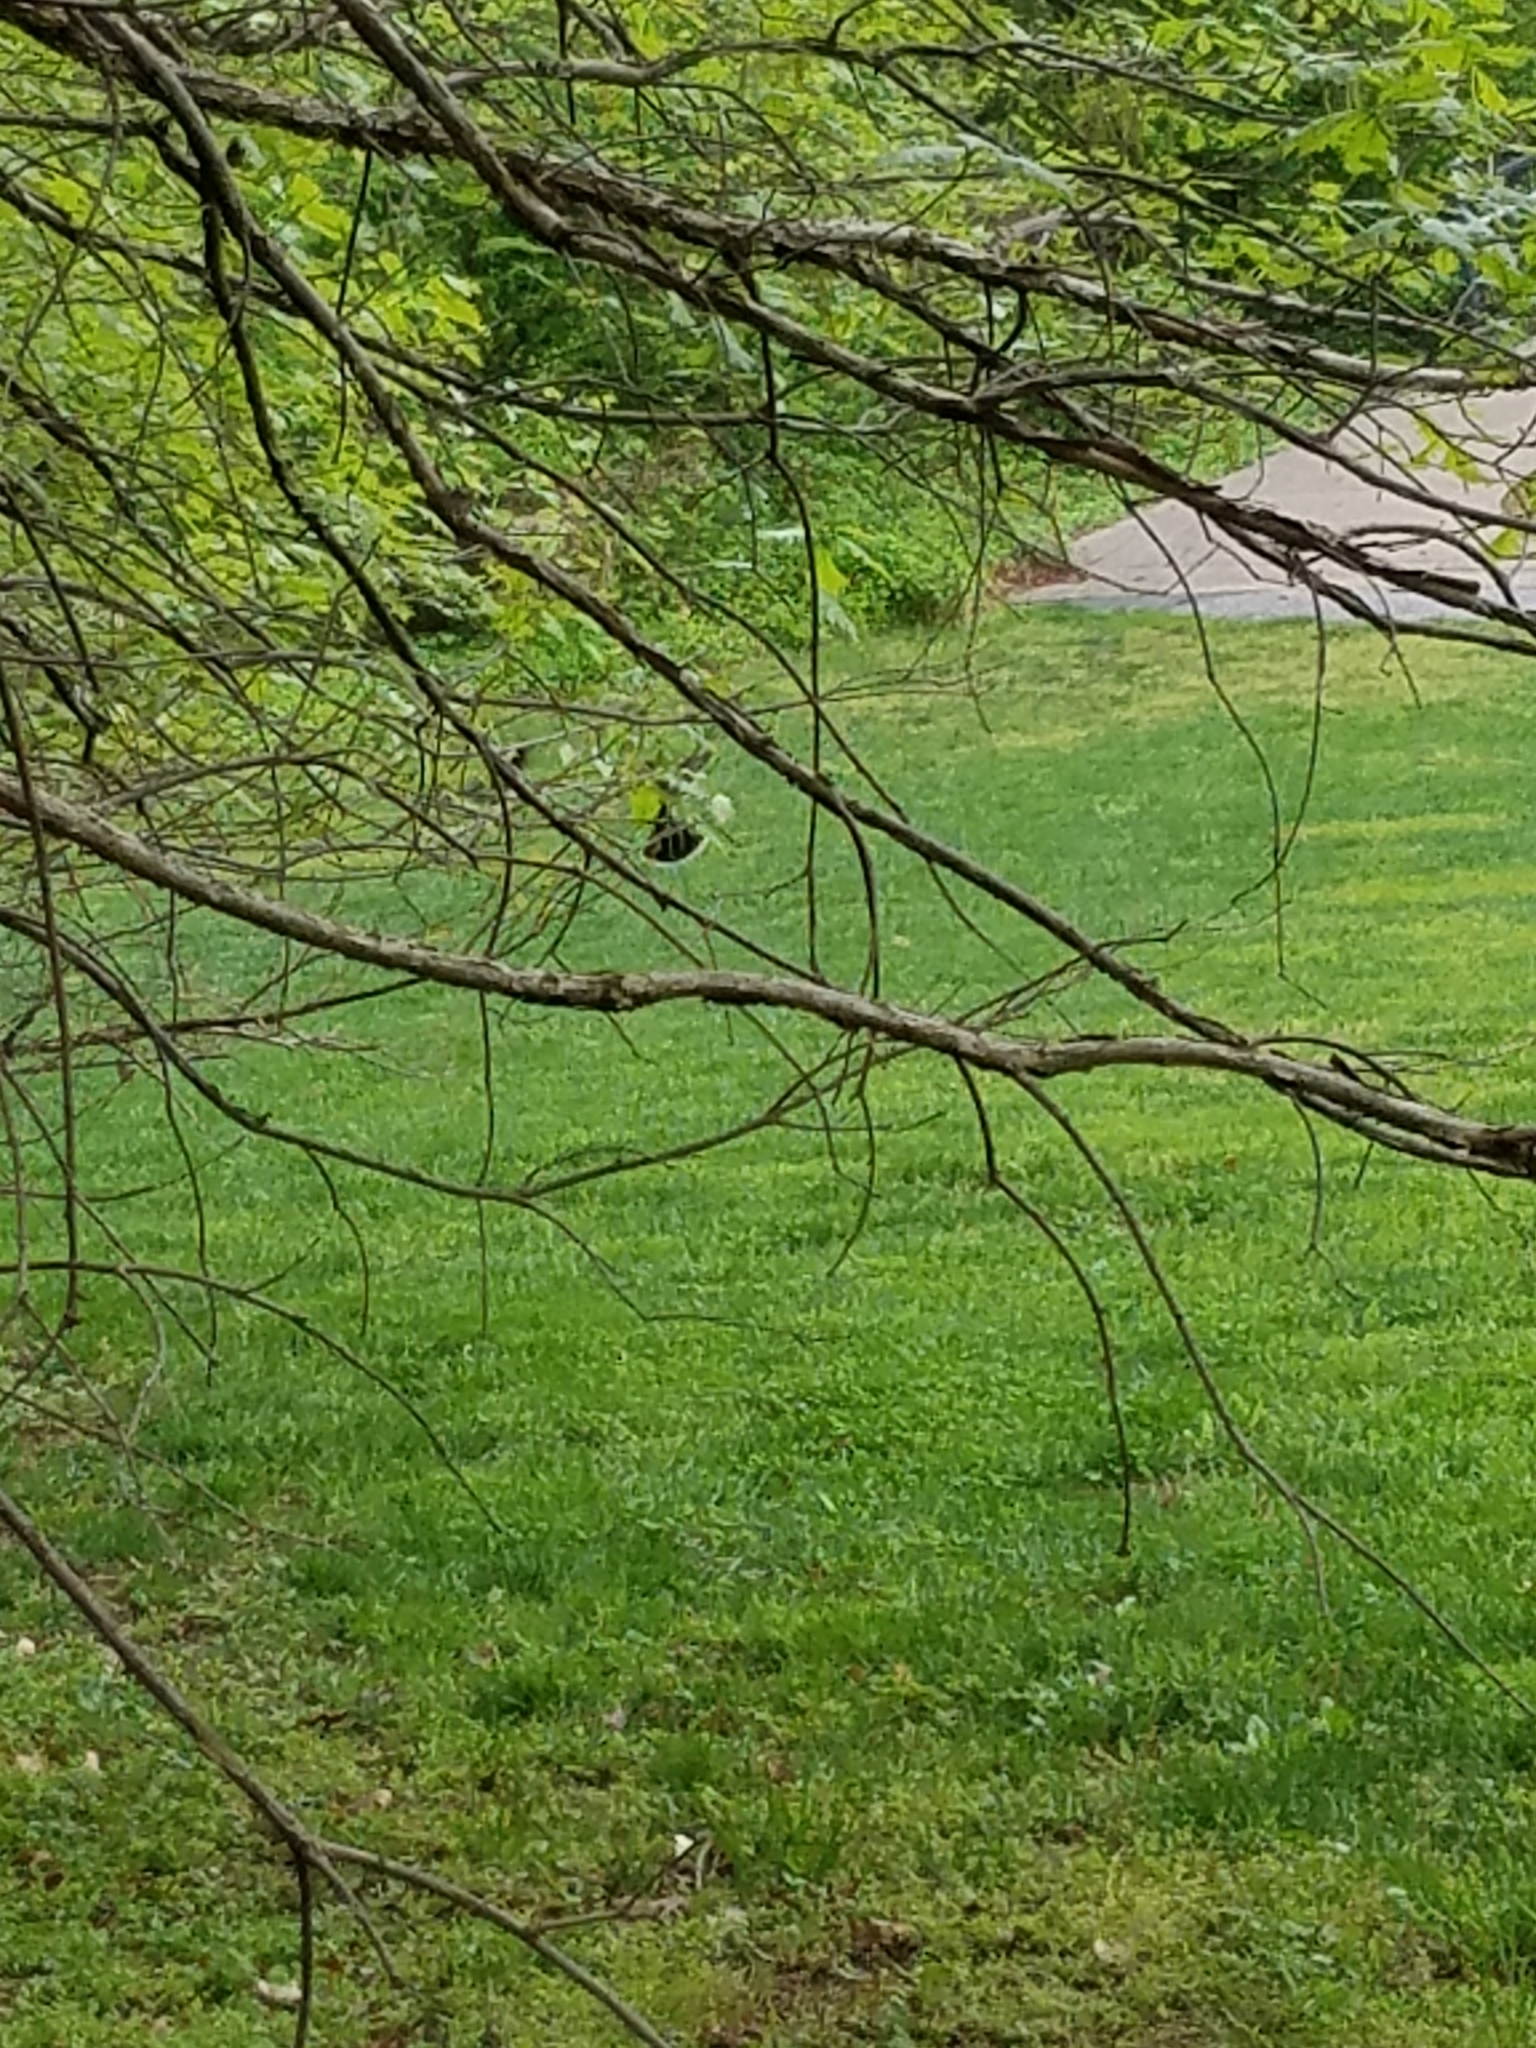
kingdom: Animalia
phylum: Chordata
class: Aves
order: Passeriformes
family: Tyrannidae
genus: Tyrannus
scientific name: Tyrannus tyrannus
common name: Eastern kingbird
